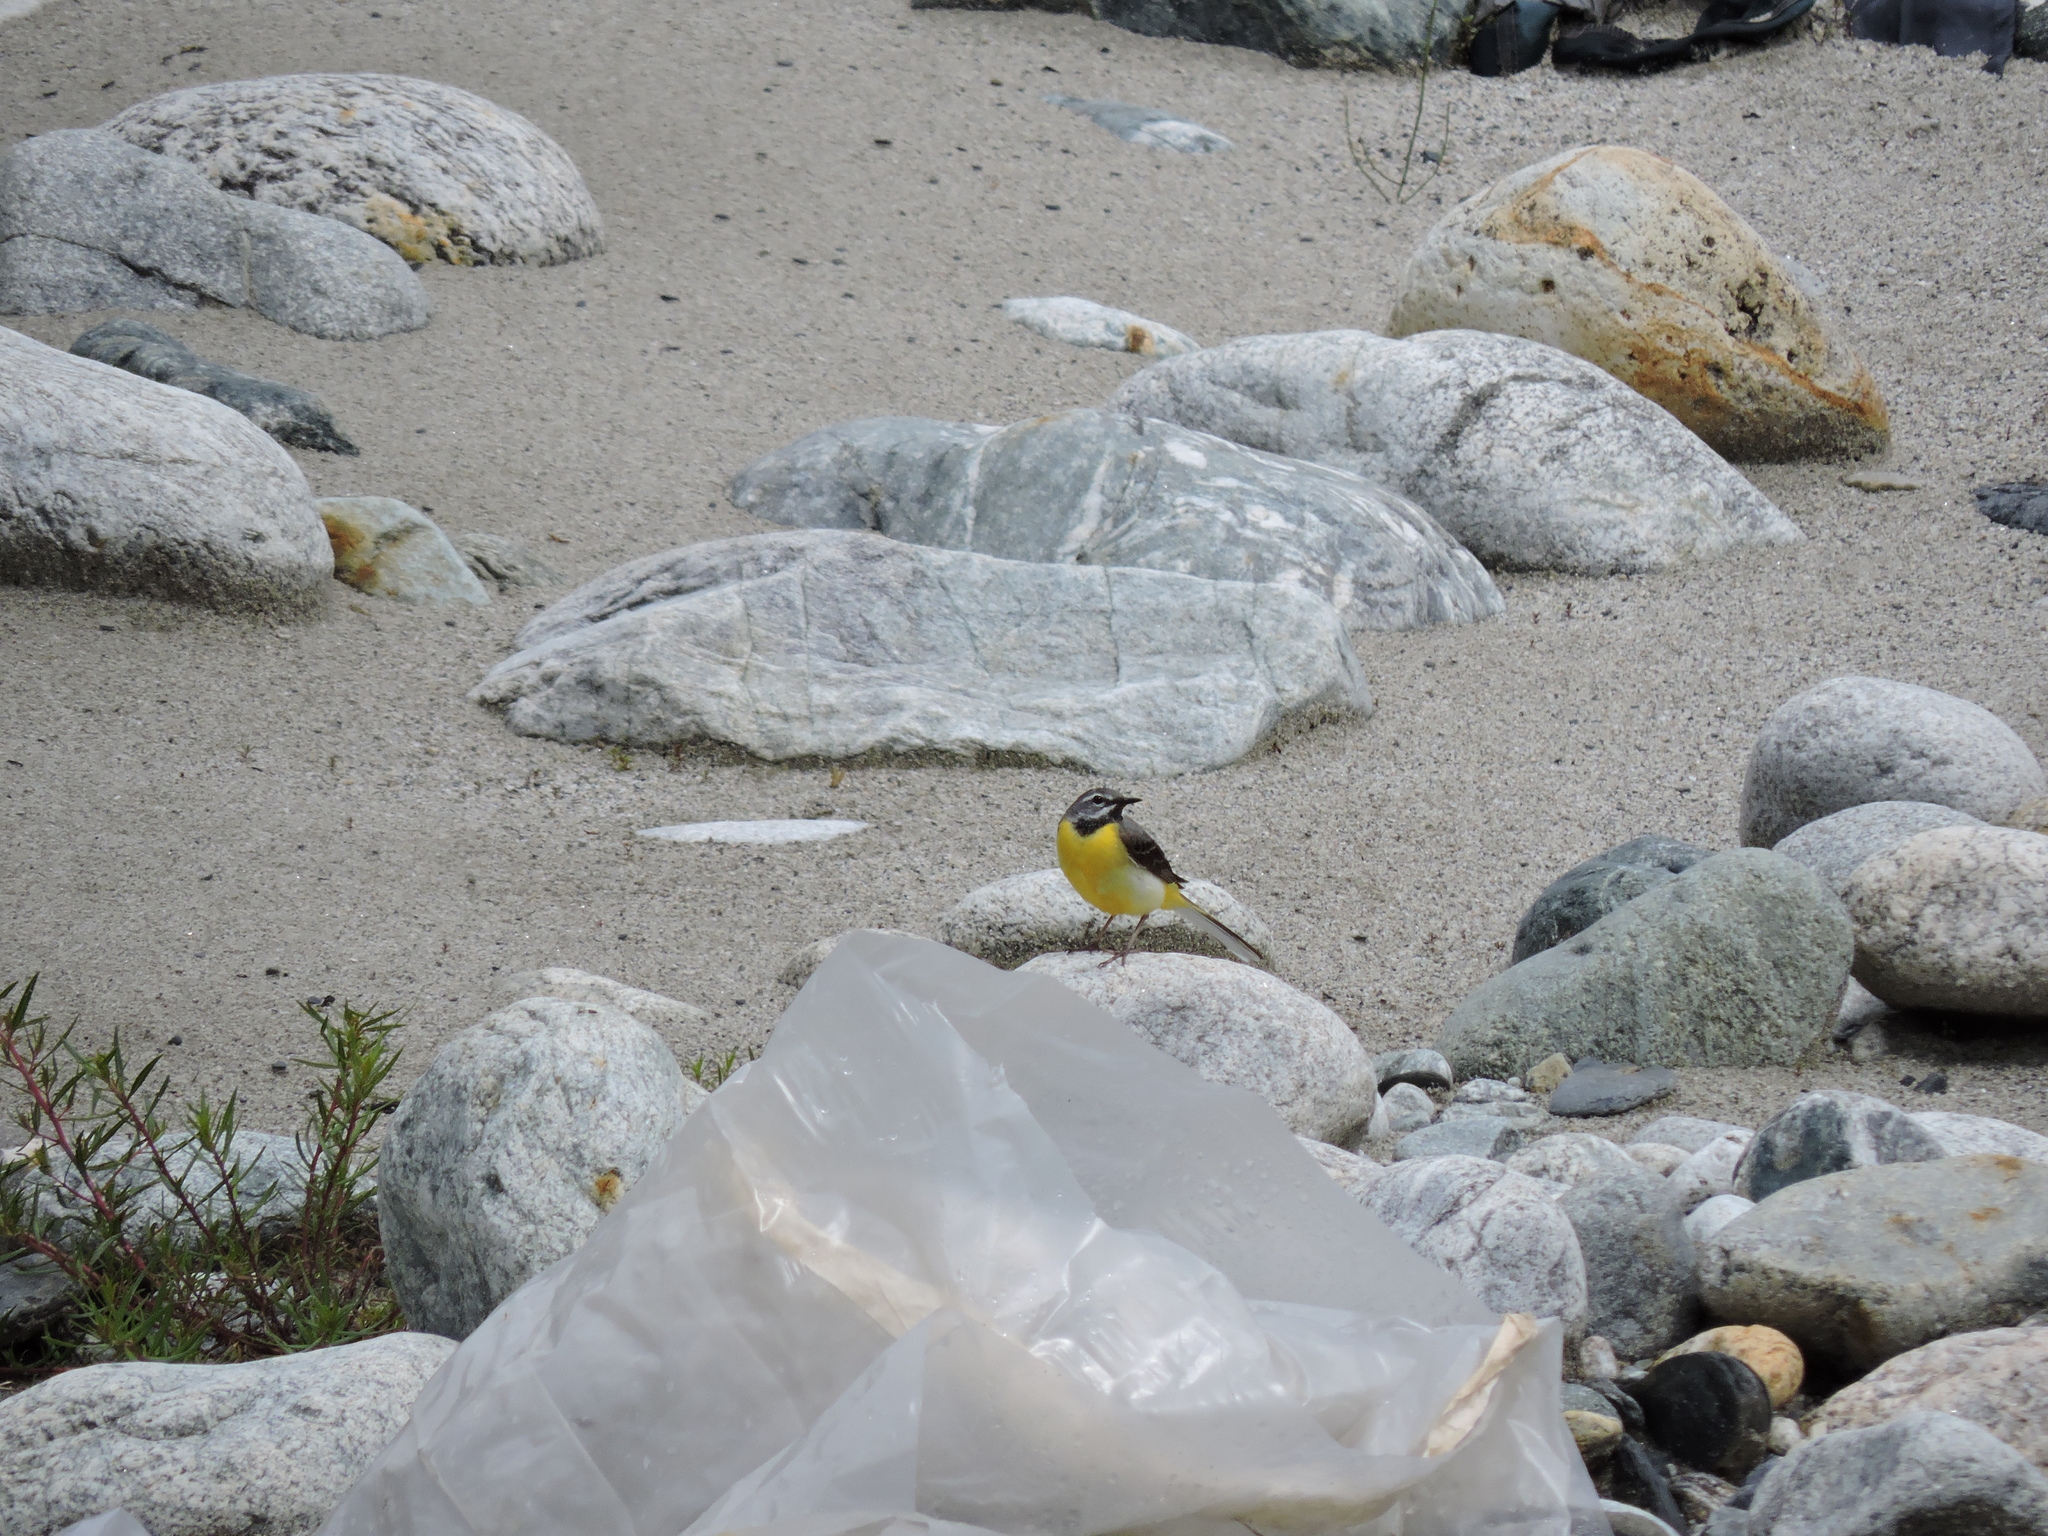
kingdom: Animalia
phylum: Chordata
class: Aves
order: Passeriformes
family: Motacillidae
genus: Motacilla
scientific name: Motacilla cinerea
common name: Grey wagtail
